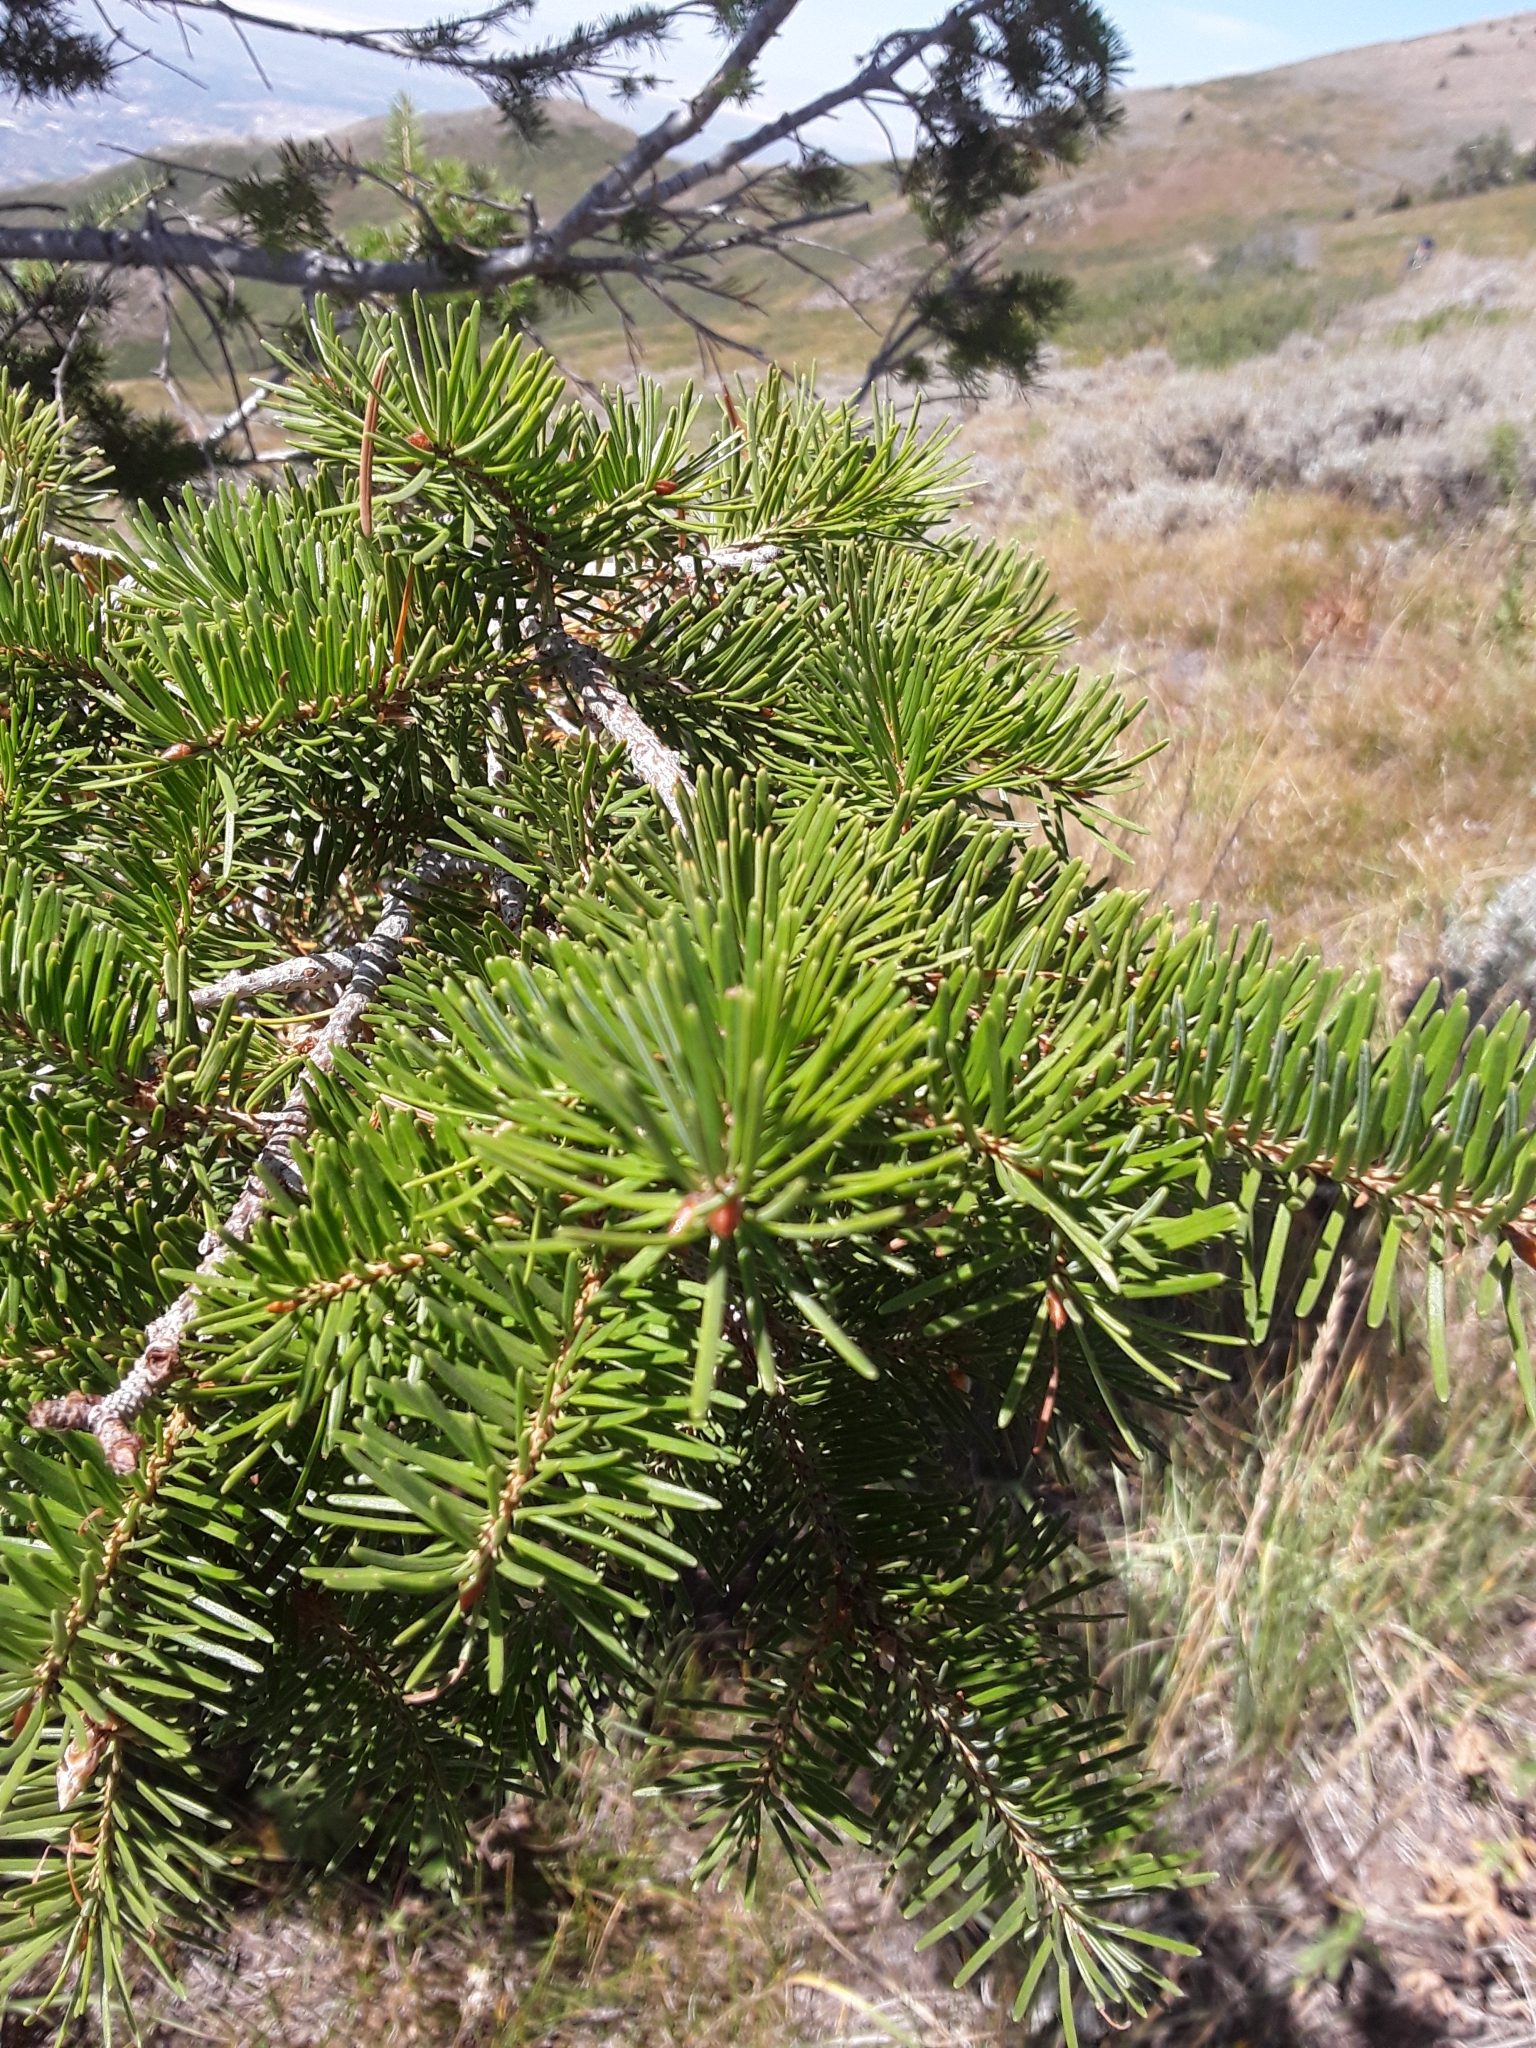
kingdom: Plantae
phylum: Tracheophyta
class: Pinopsida
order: Pinales
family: Pinaceae
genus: Pseudotsuga
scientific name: Pseudotsuga menziesii
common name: Douglas fir
